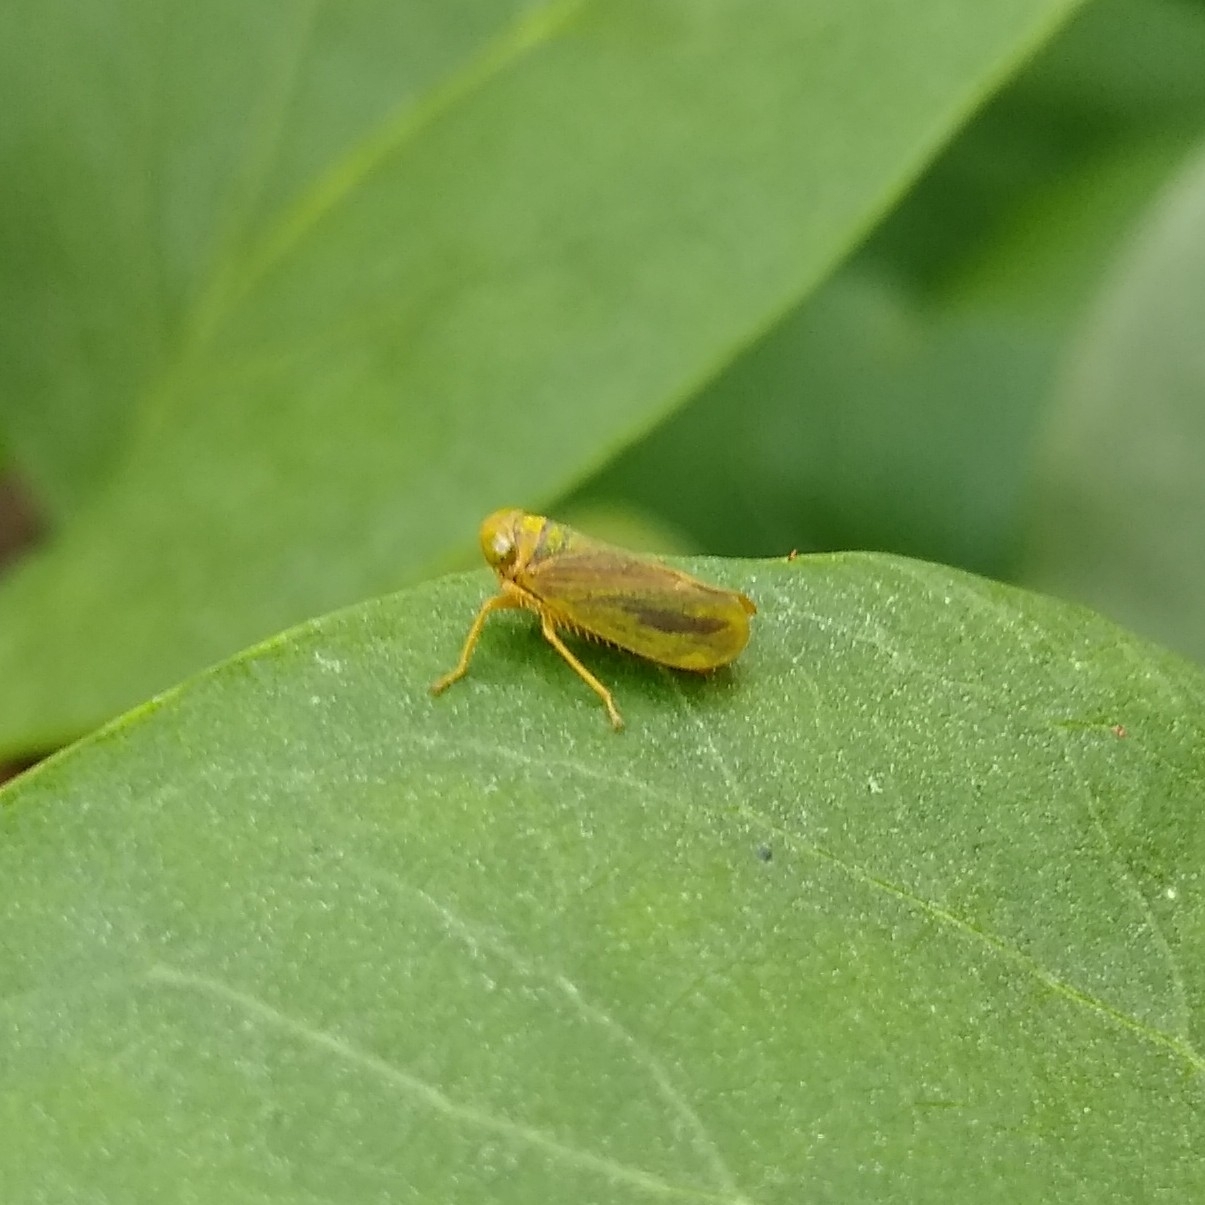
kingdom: Animalia
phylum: Arthropoda
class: Insecta
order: Hemiptera
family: Cicadellidae
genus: Jikradia
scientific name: Jikradia olitoria
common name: Coppery leafhopper
